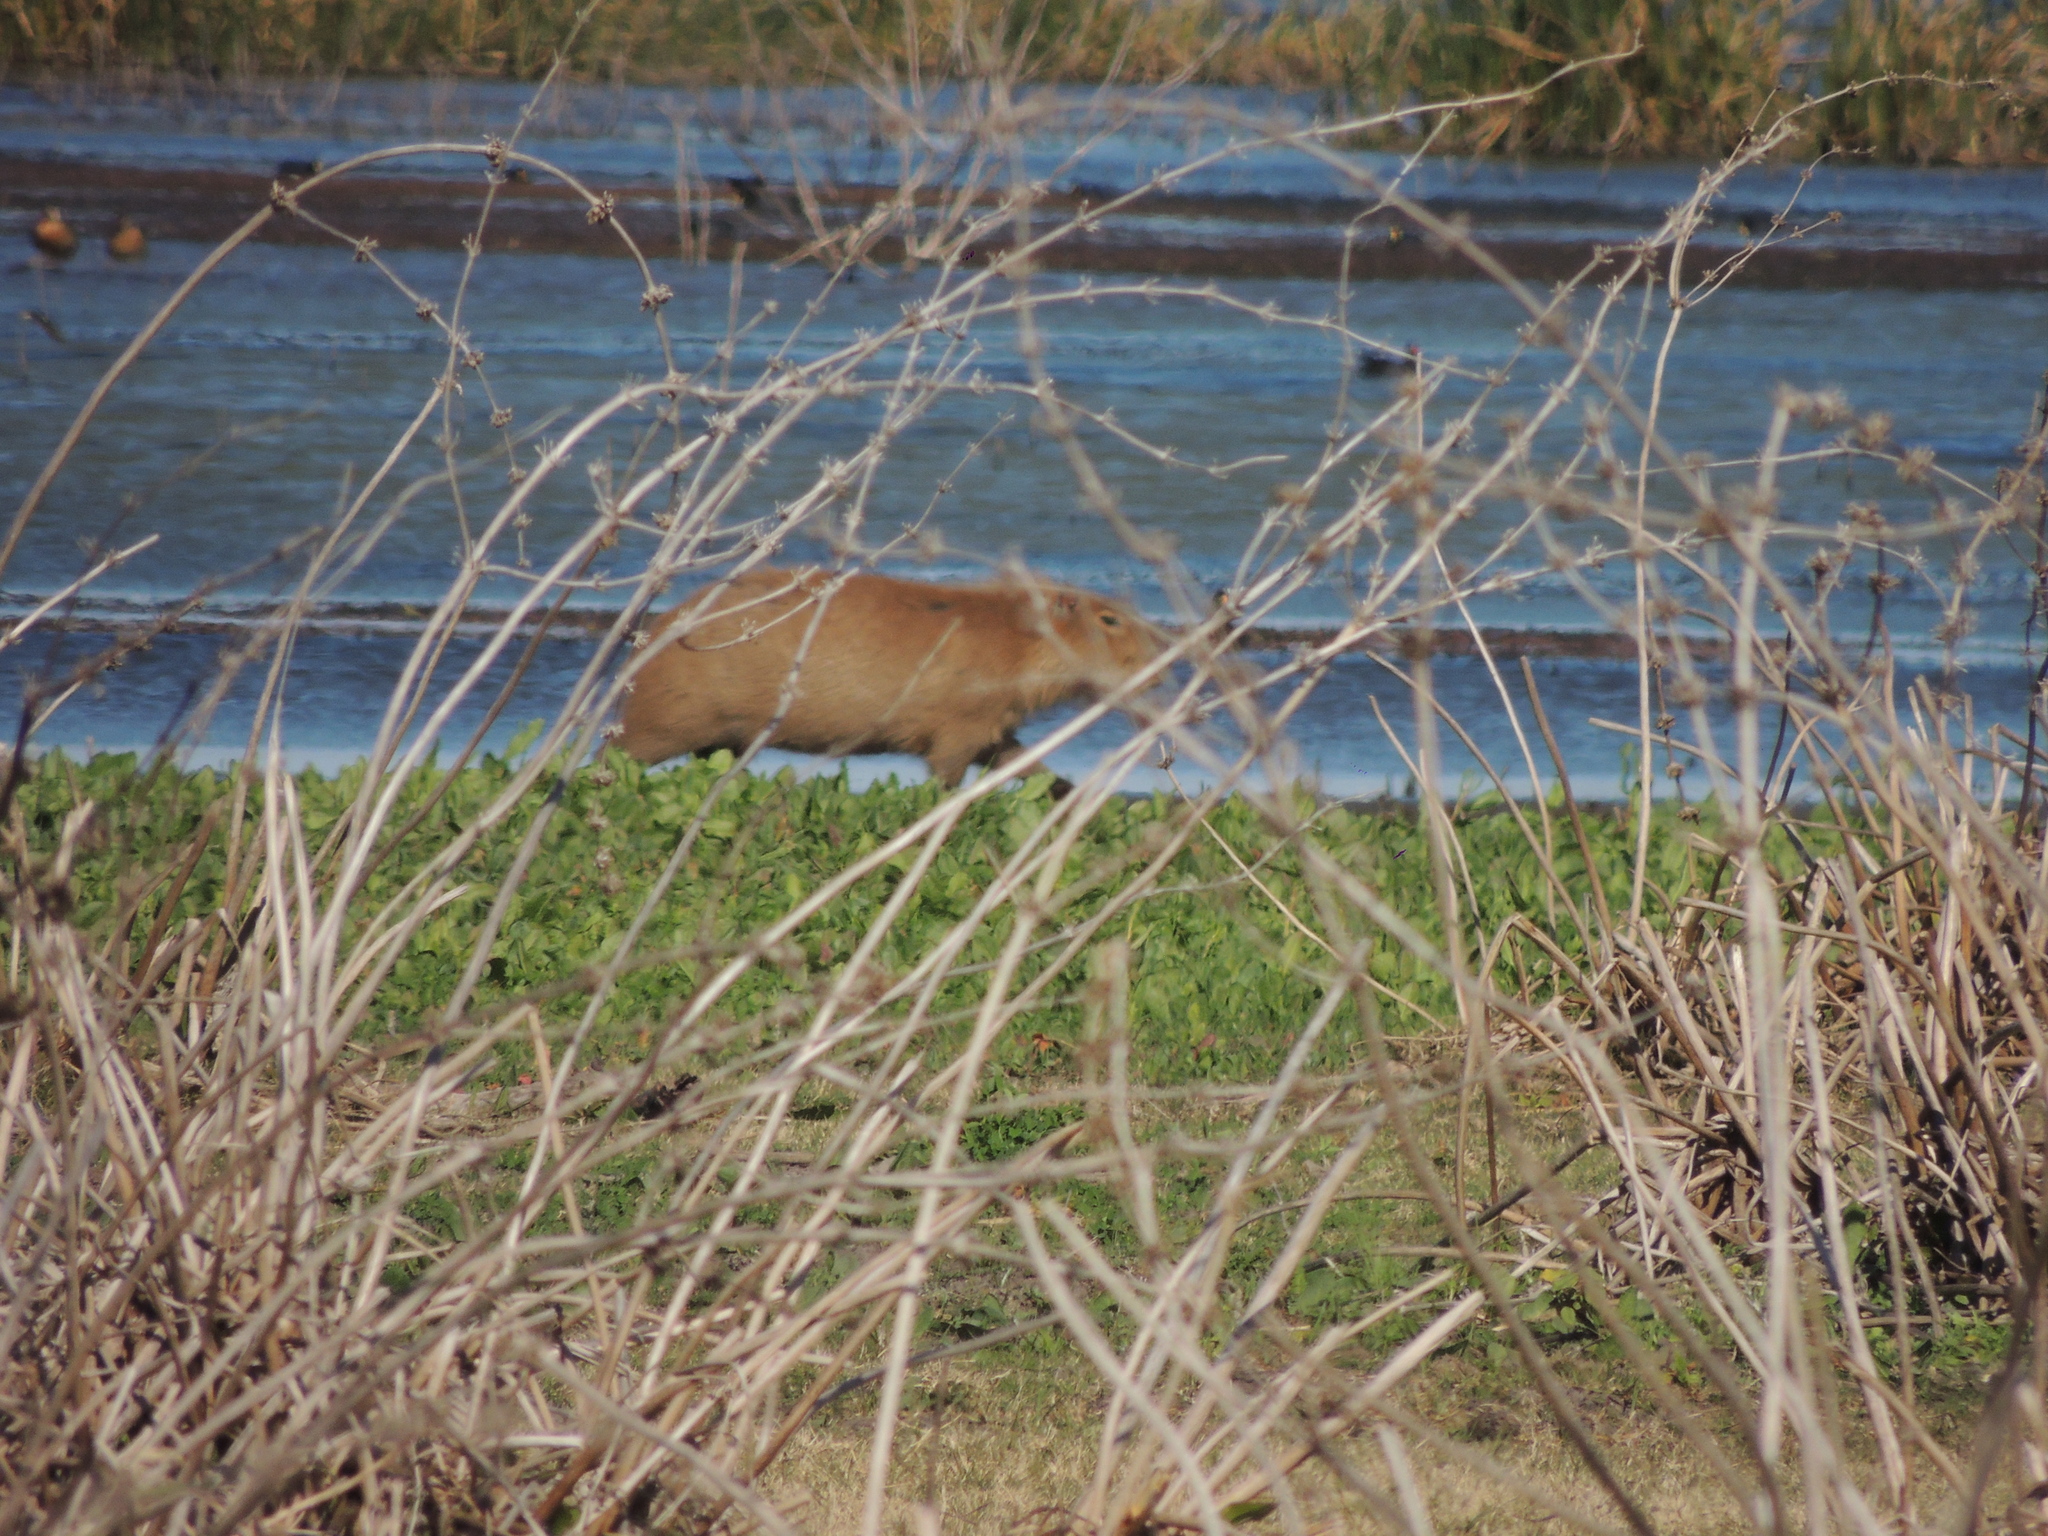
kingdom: Animalia
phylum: Chordata
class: Mammalia
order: Rodentia
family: Caviidae
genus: Hydrochoerus
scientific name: Hydrochoerus hydrochaeris
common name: Capybara
